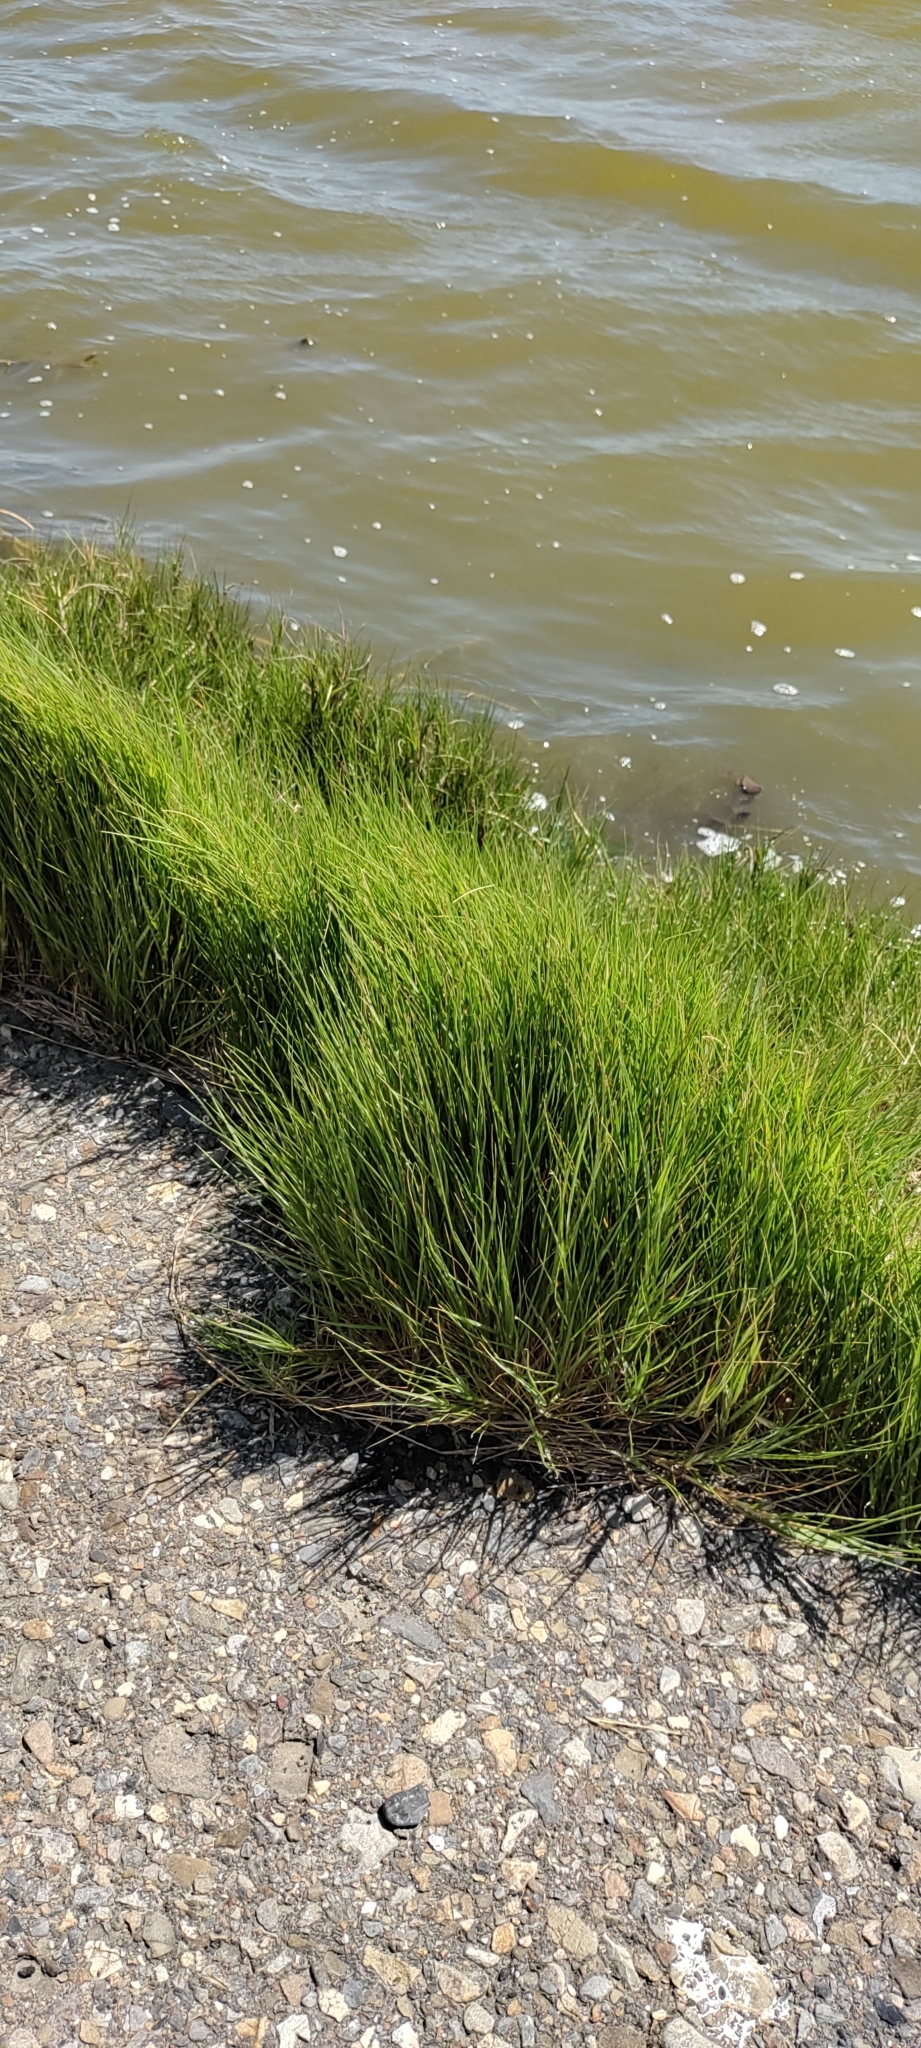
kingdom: Plantae
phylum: Tracheophyta
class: Liliopsida
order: Poales
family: Poaceae
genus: Sporobolus
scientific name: Sporobolus virginicus
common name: Beach dropseed
